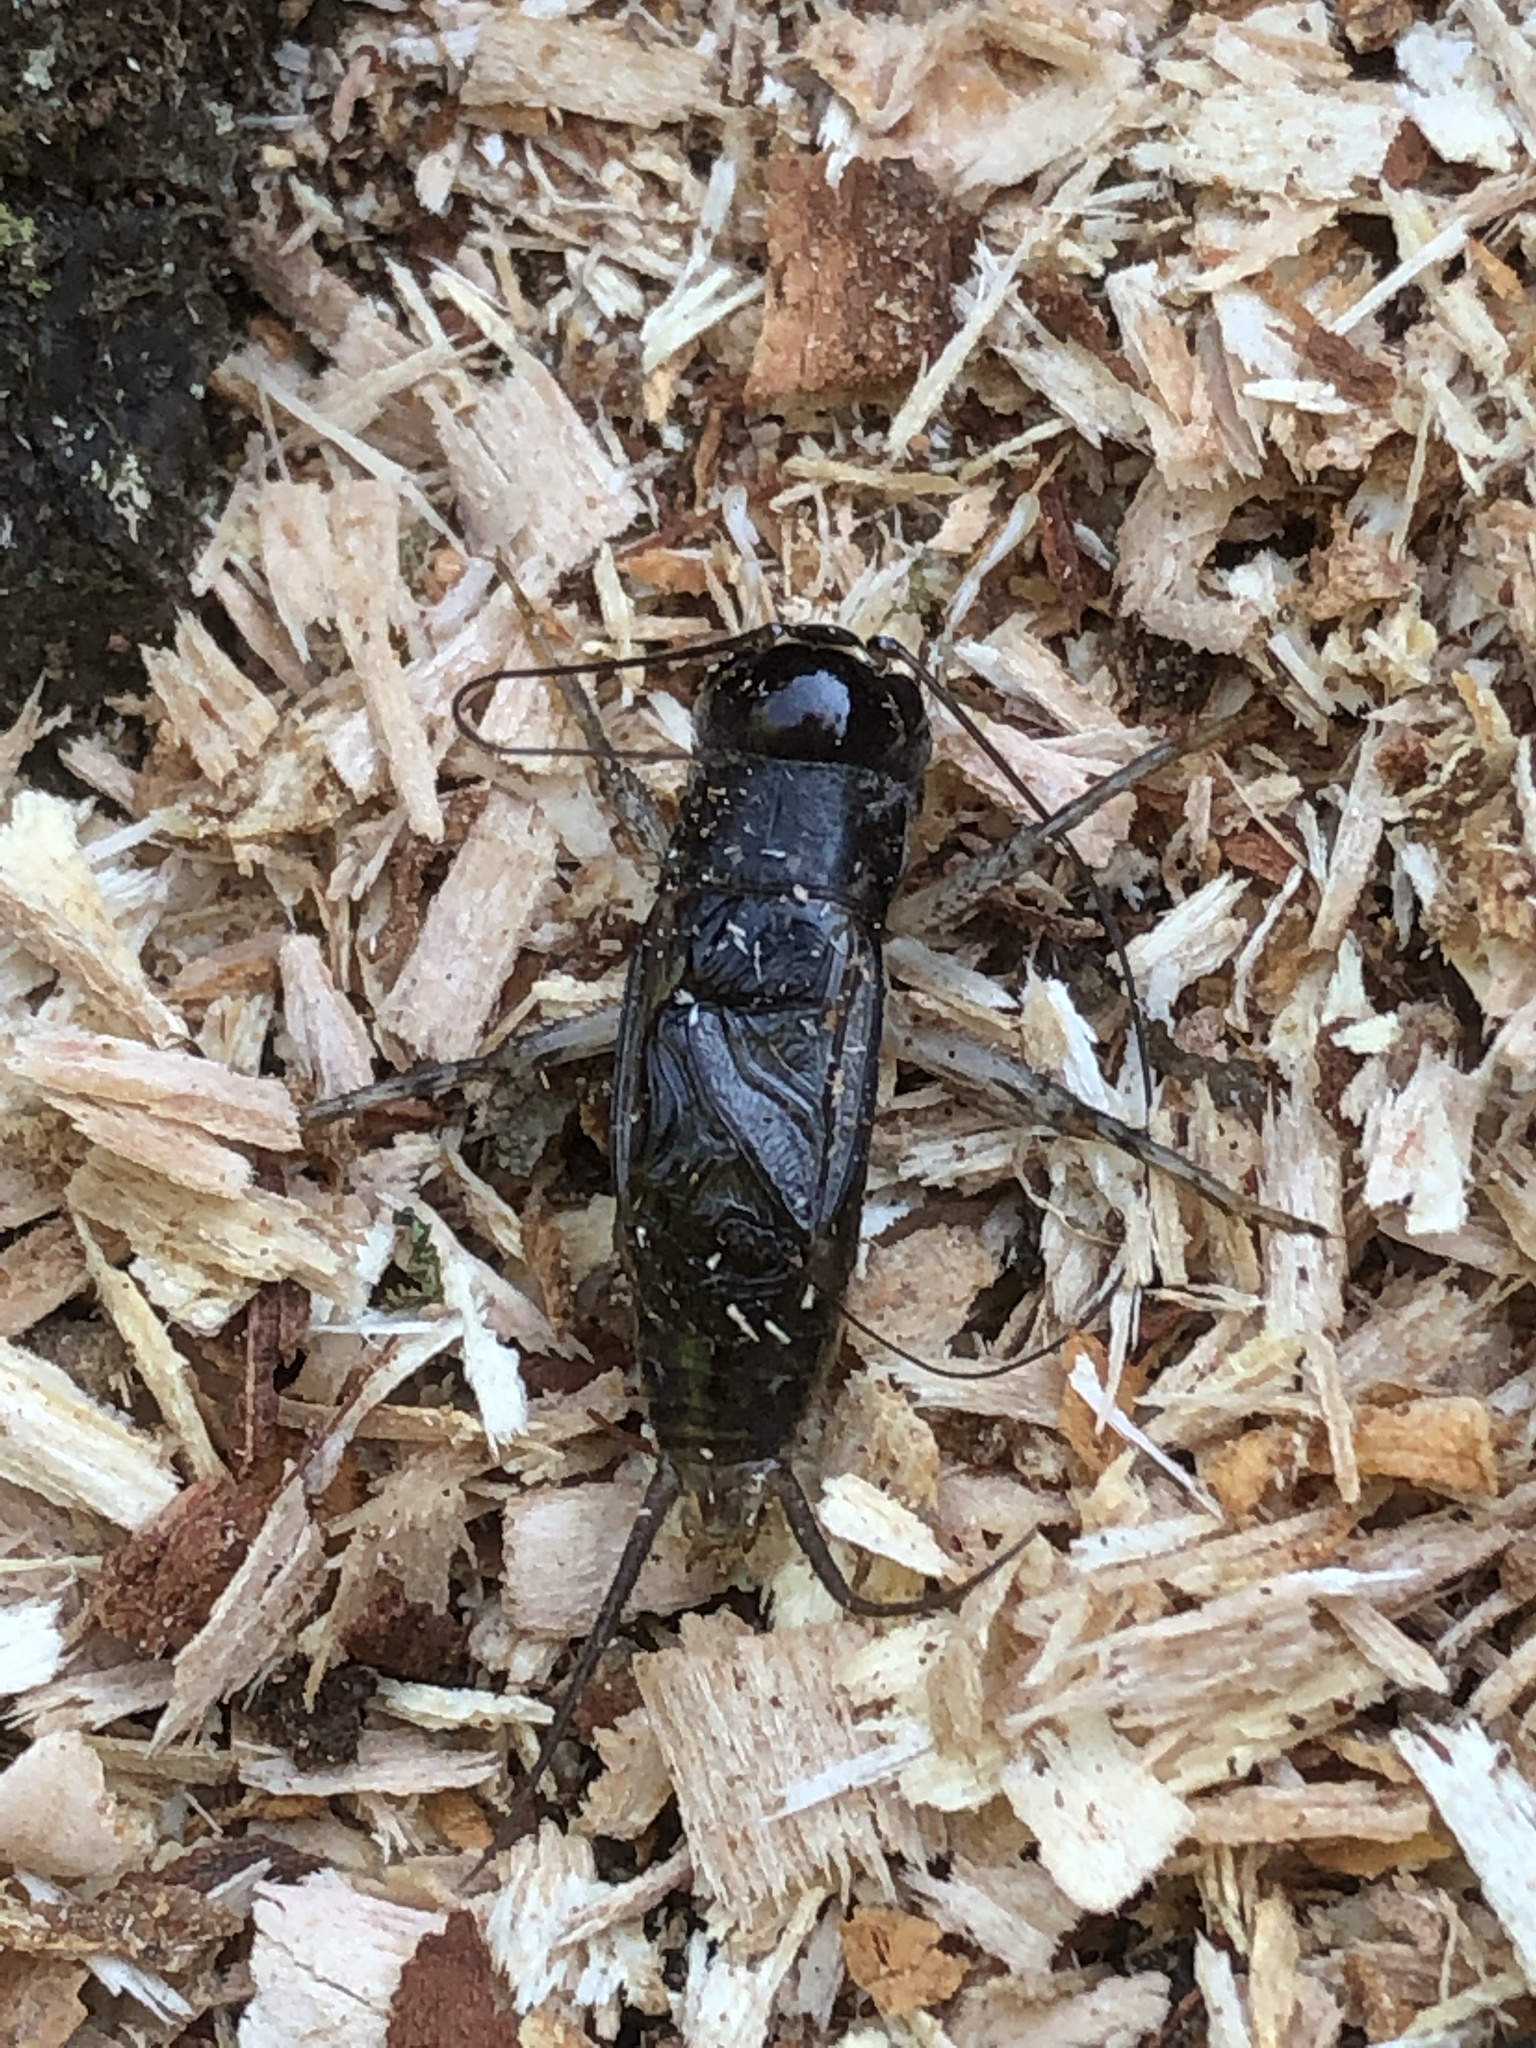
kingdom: Animalia
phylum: Arthropoda
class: Insecta
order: Orthoptera
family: Gryllidae
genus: Velarifictorus
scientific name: Velarifictorus micado
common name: Japanese burrowing cricket
